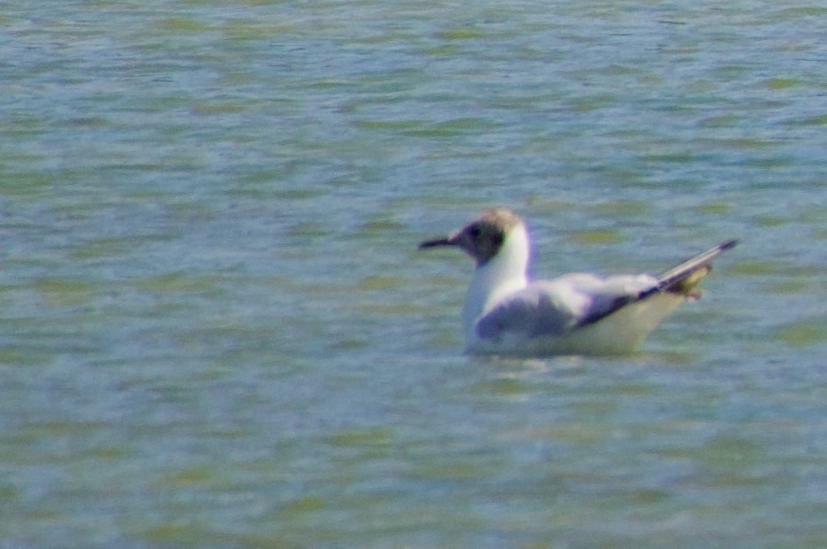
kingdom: Animalia
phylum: Chordata
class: Aves
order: Charadriiformes
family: Laridae
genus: Chroicocephalus
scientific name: Chroicocephalus ridibundus
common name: Black-headed gull
